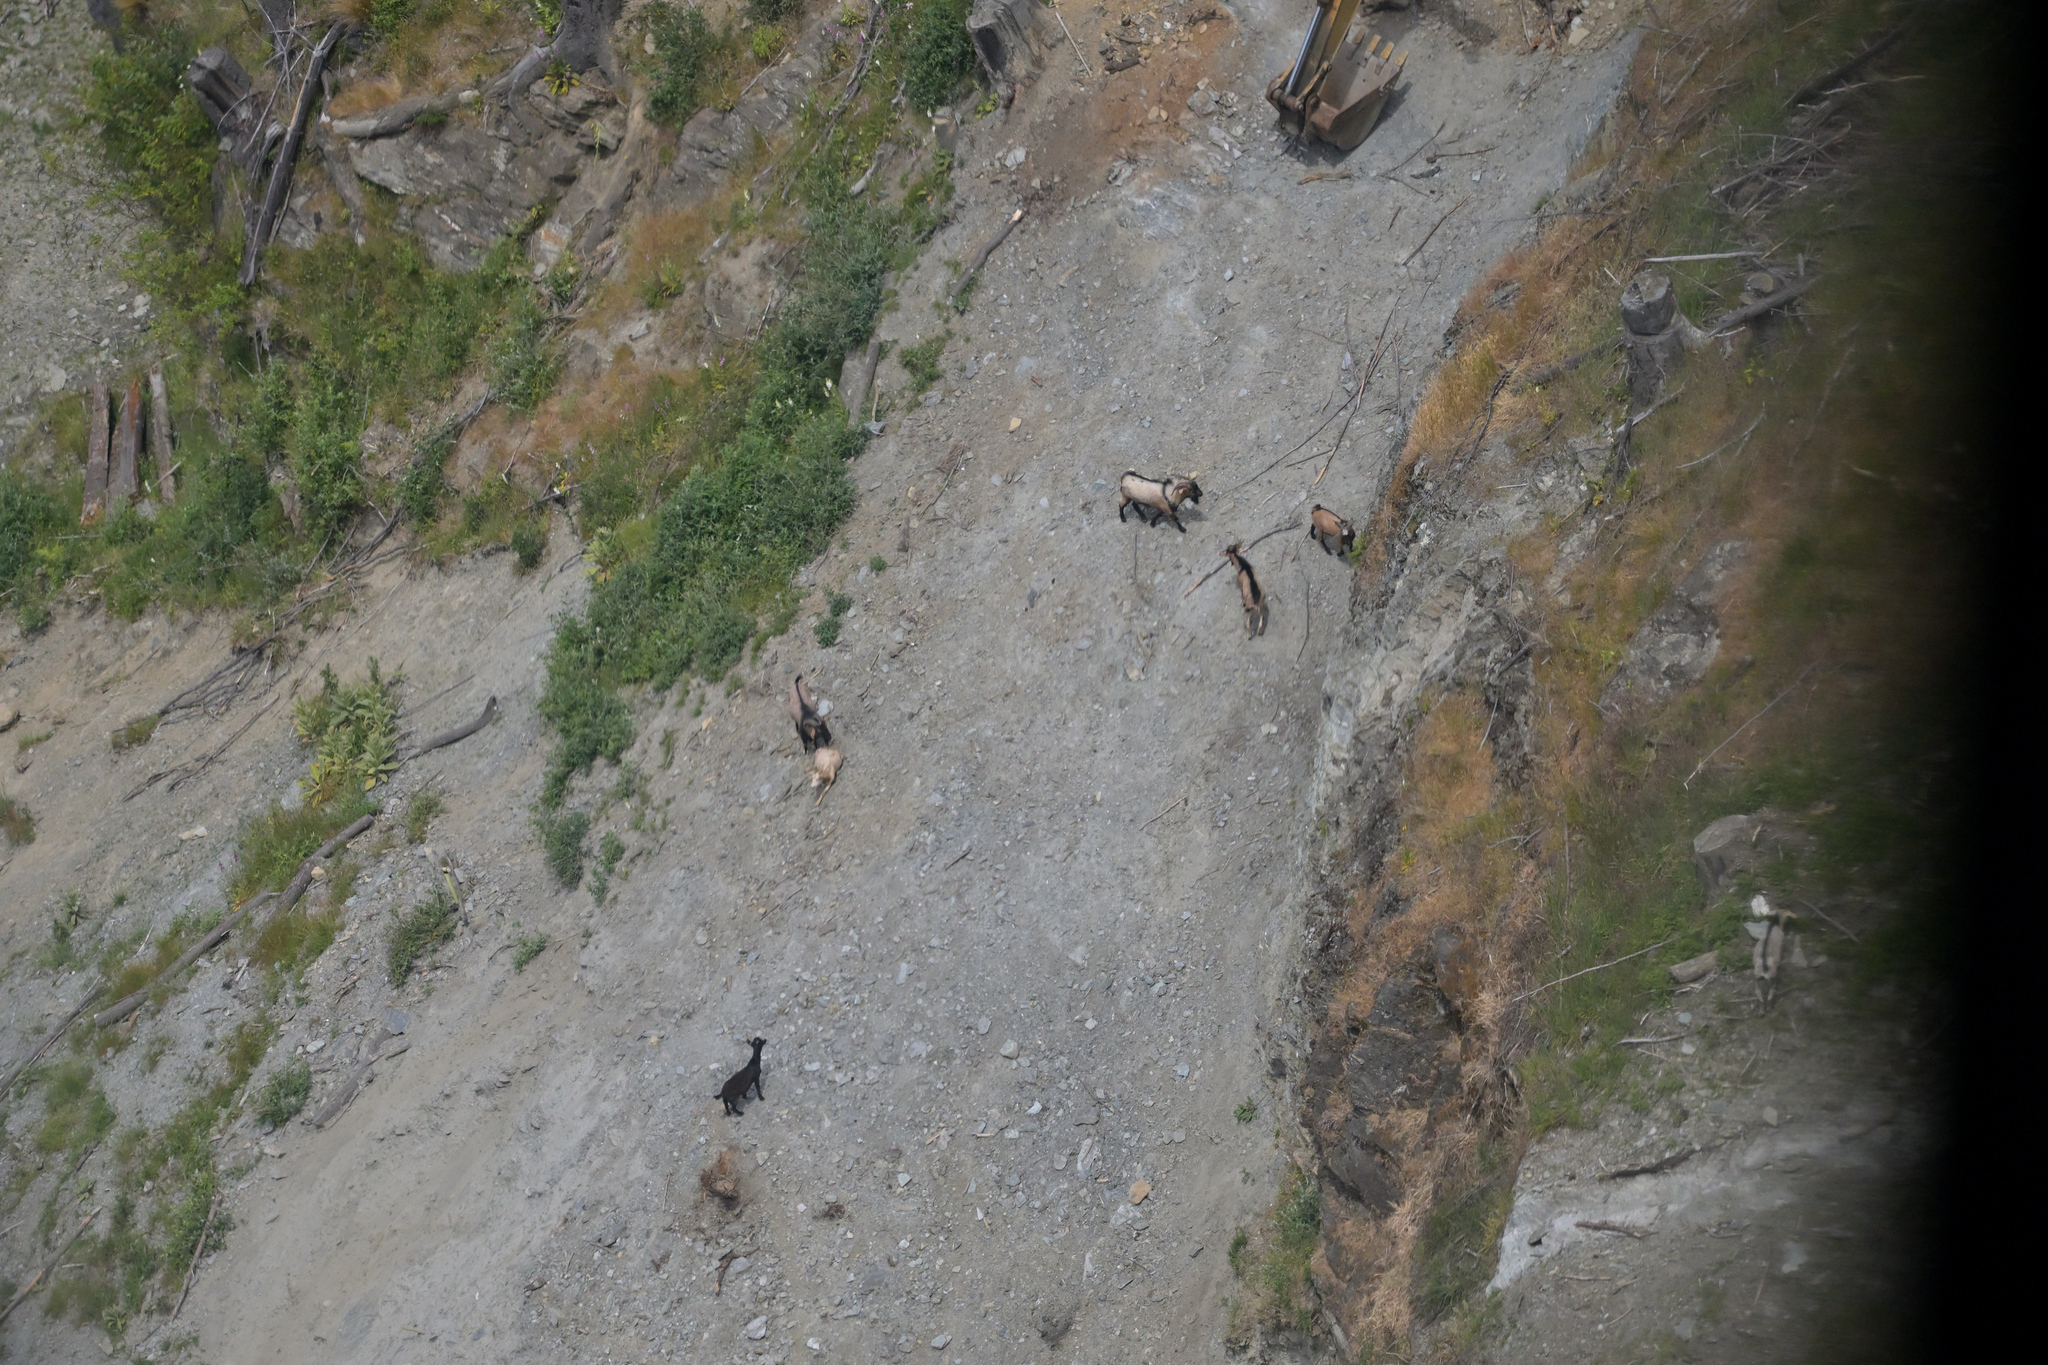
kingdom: Animalia
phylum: Chordata
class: Mammalia
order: Artiodactyla
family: Bovidae
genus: Capra
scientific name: Capra hircus
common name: Domestic goat
